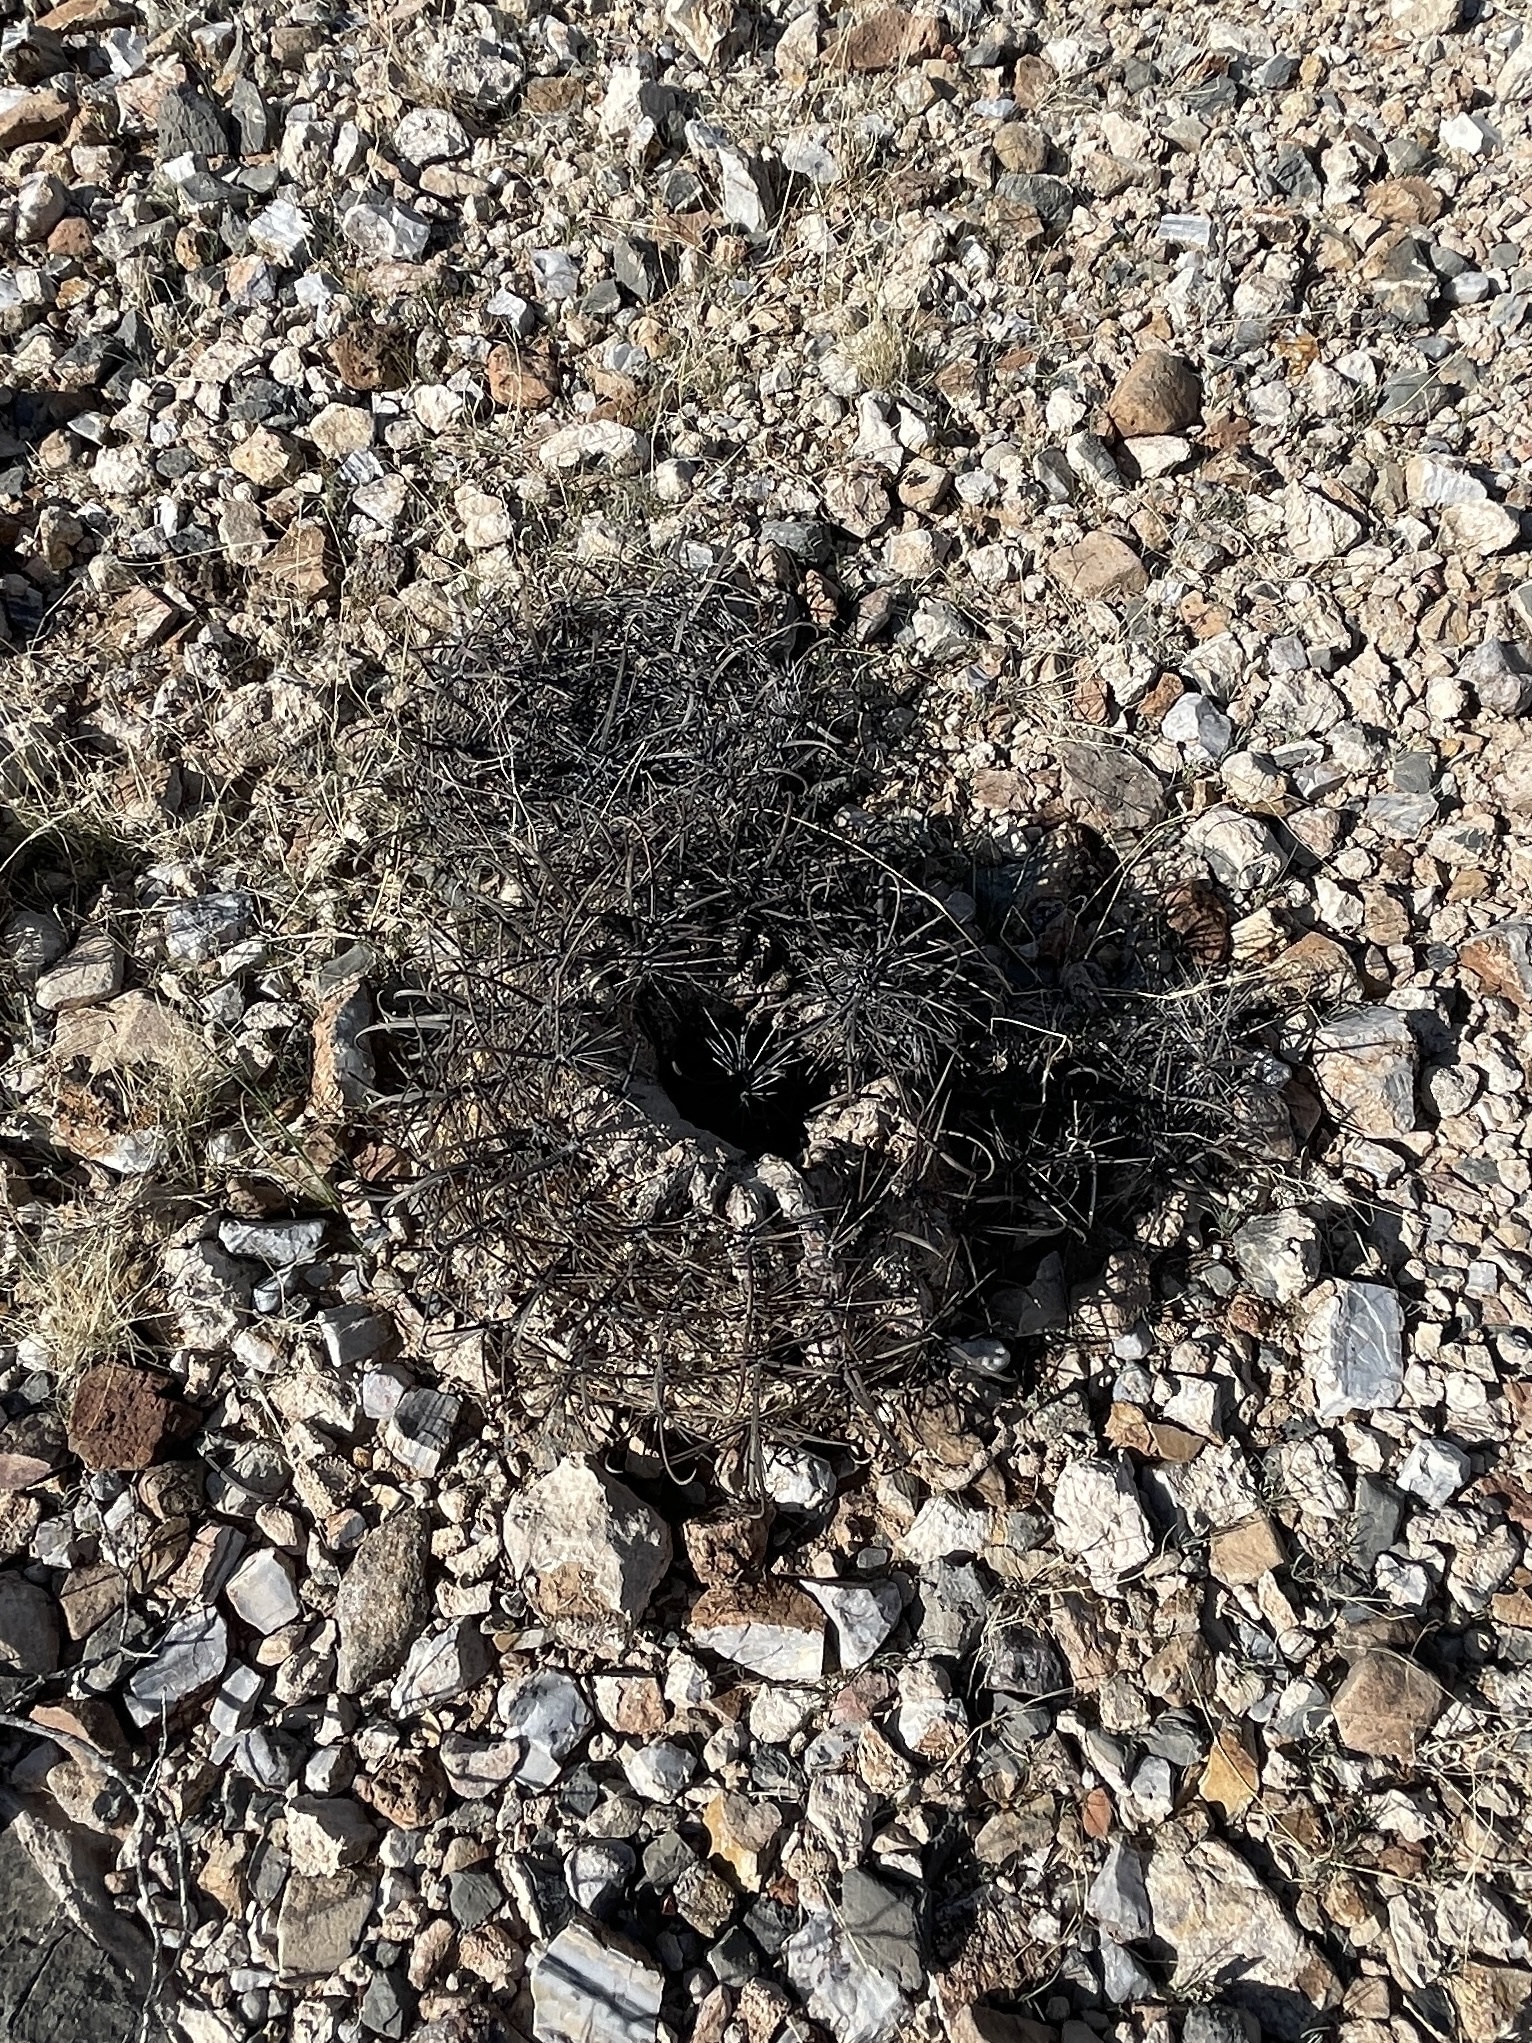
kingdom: Plantae
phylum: Tracheophyta
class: Magnoliopsida
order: Caryophyllales
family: Cactaceae
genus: Ferocactus
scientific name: Ferocactus wislizeni
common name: Candy barrel cactus
